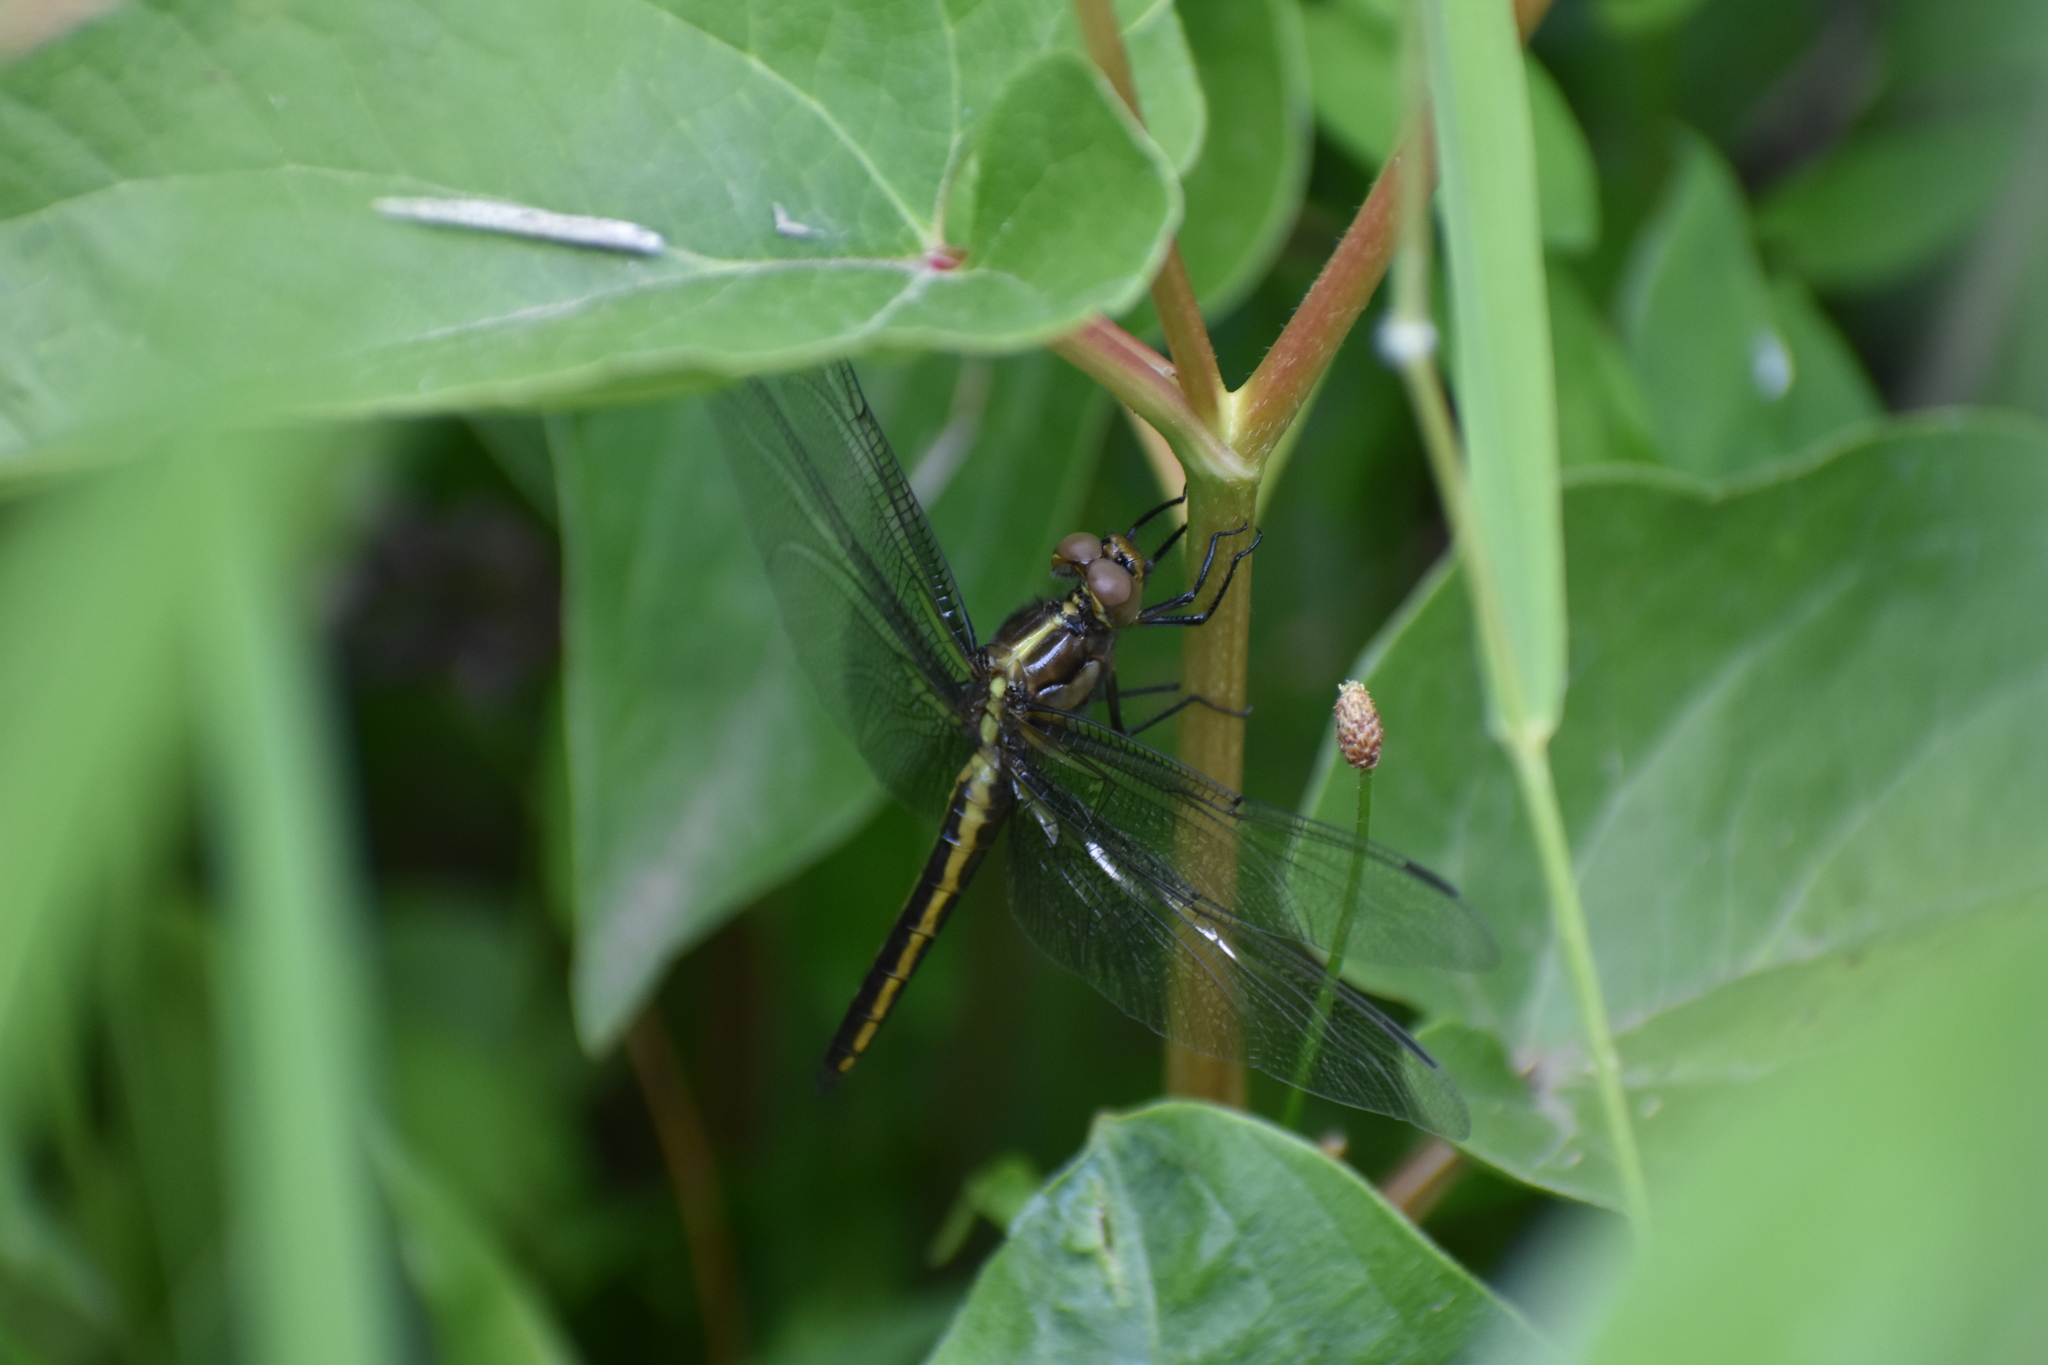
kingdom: Animalia
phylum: Arthropoda
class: Insecta
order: Odonata
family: Libellulidae
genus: Libellula
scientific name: Libellula luctuosa
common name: Widow skimmer
